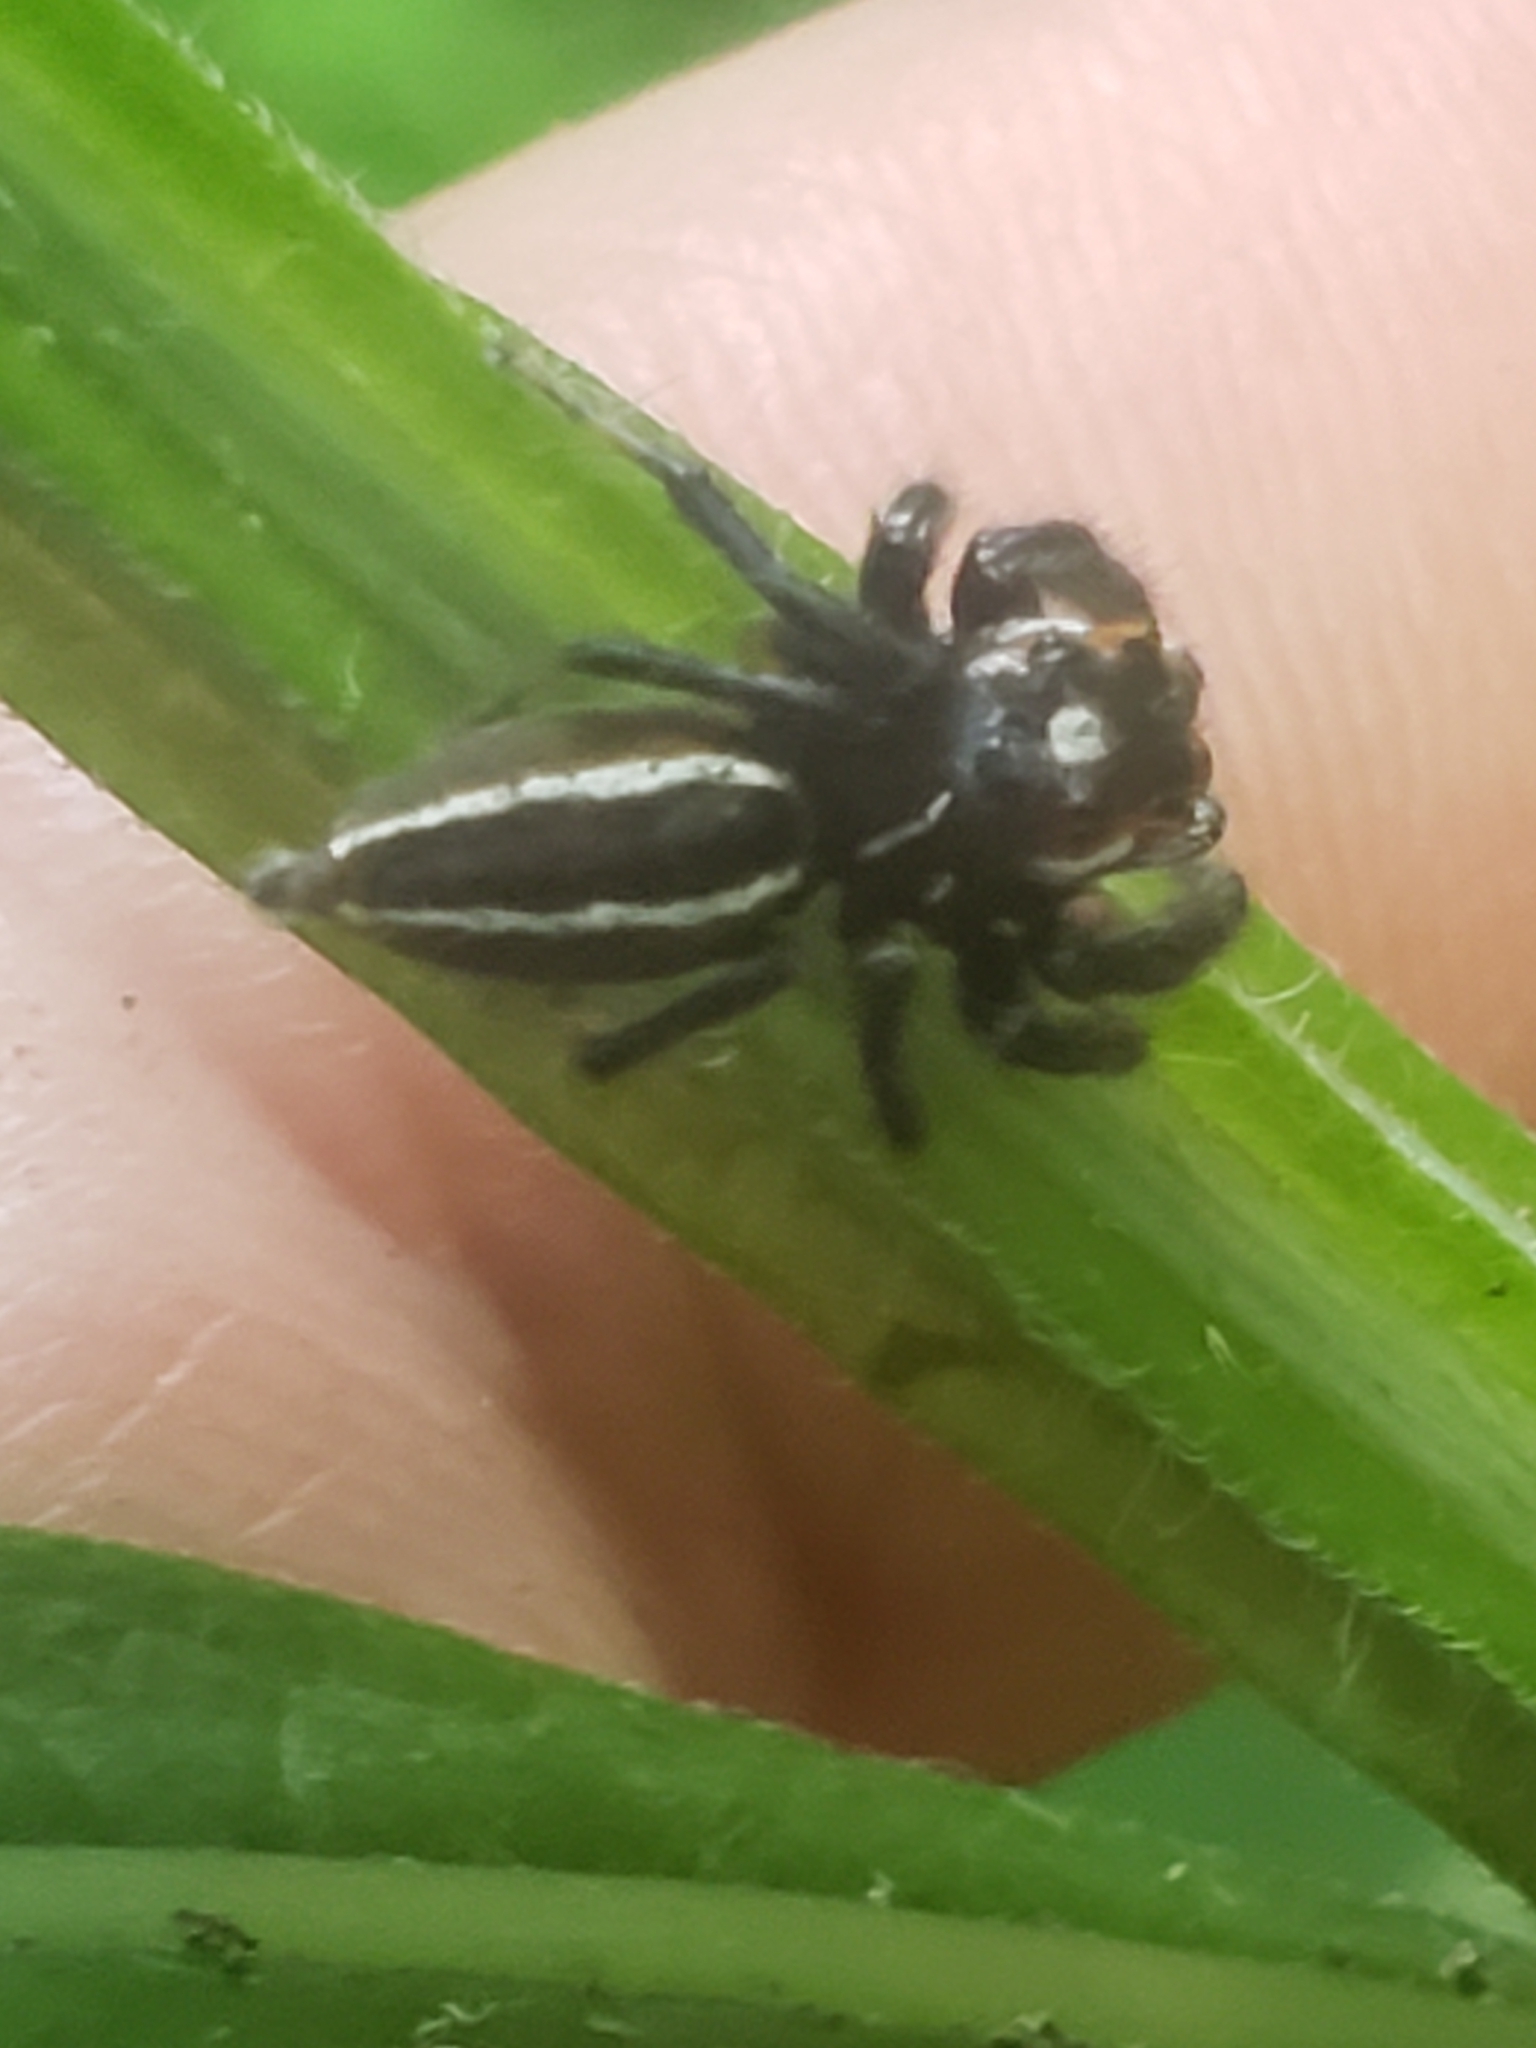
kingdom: Animalia
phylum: Arthropoda
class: Arachnida
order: Araneae
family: Salticidae
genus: Colonus
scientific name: Colonus sylvanus
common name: Jumping spiders
